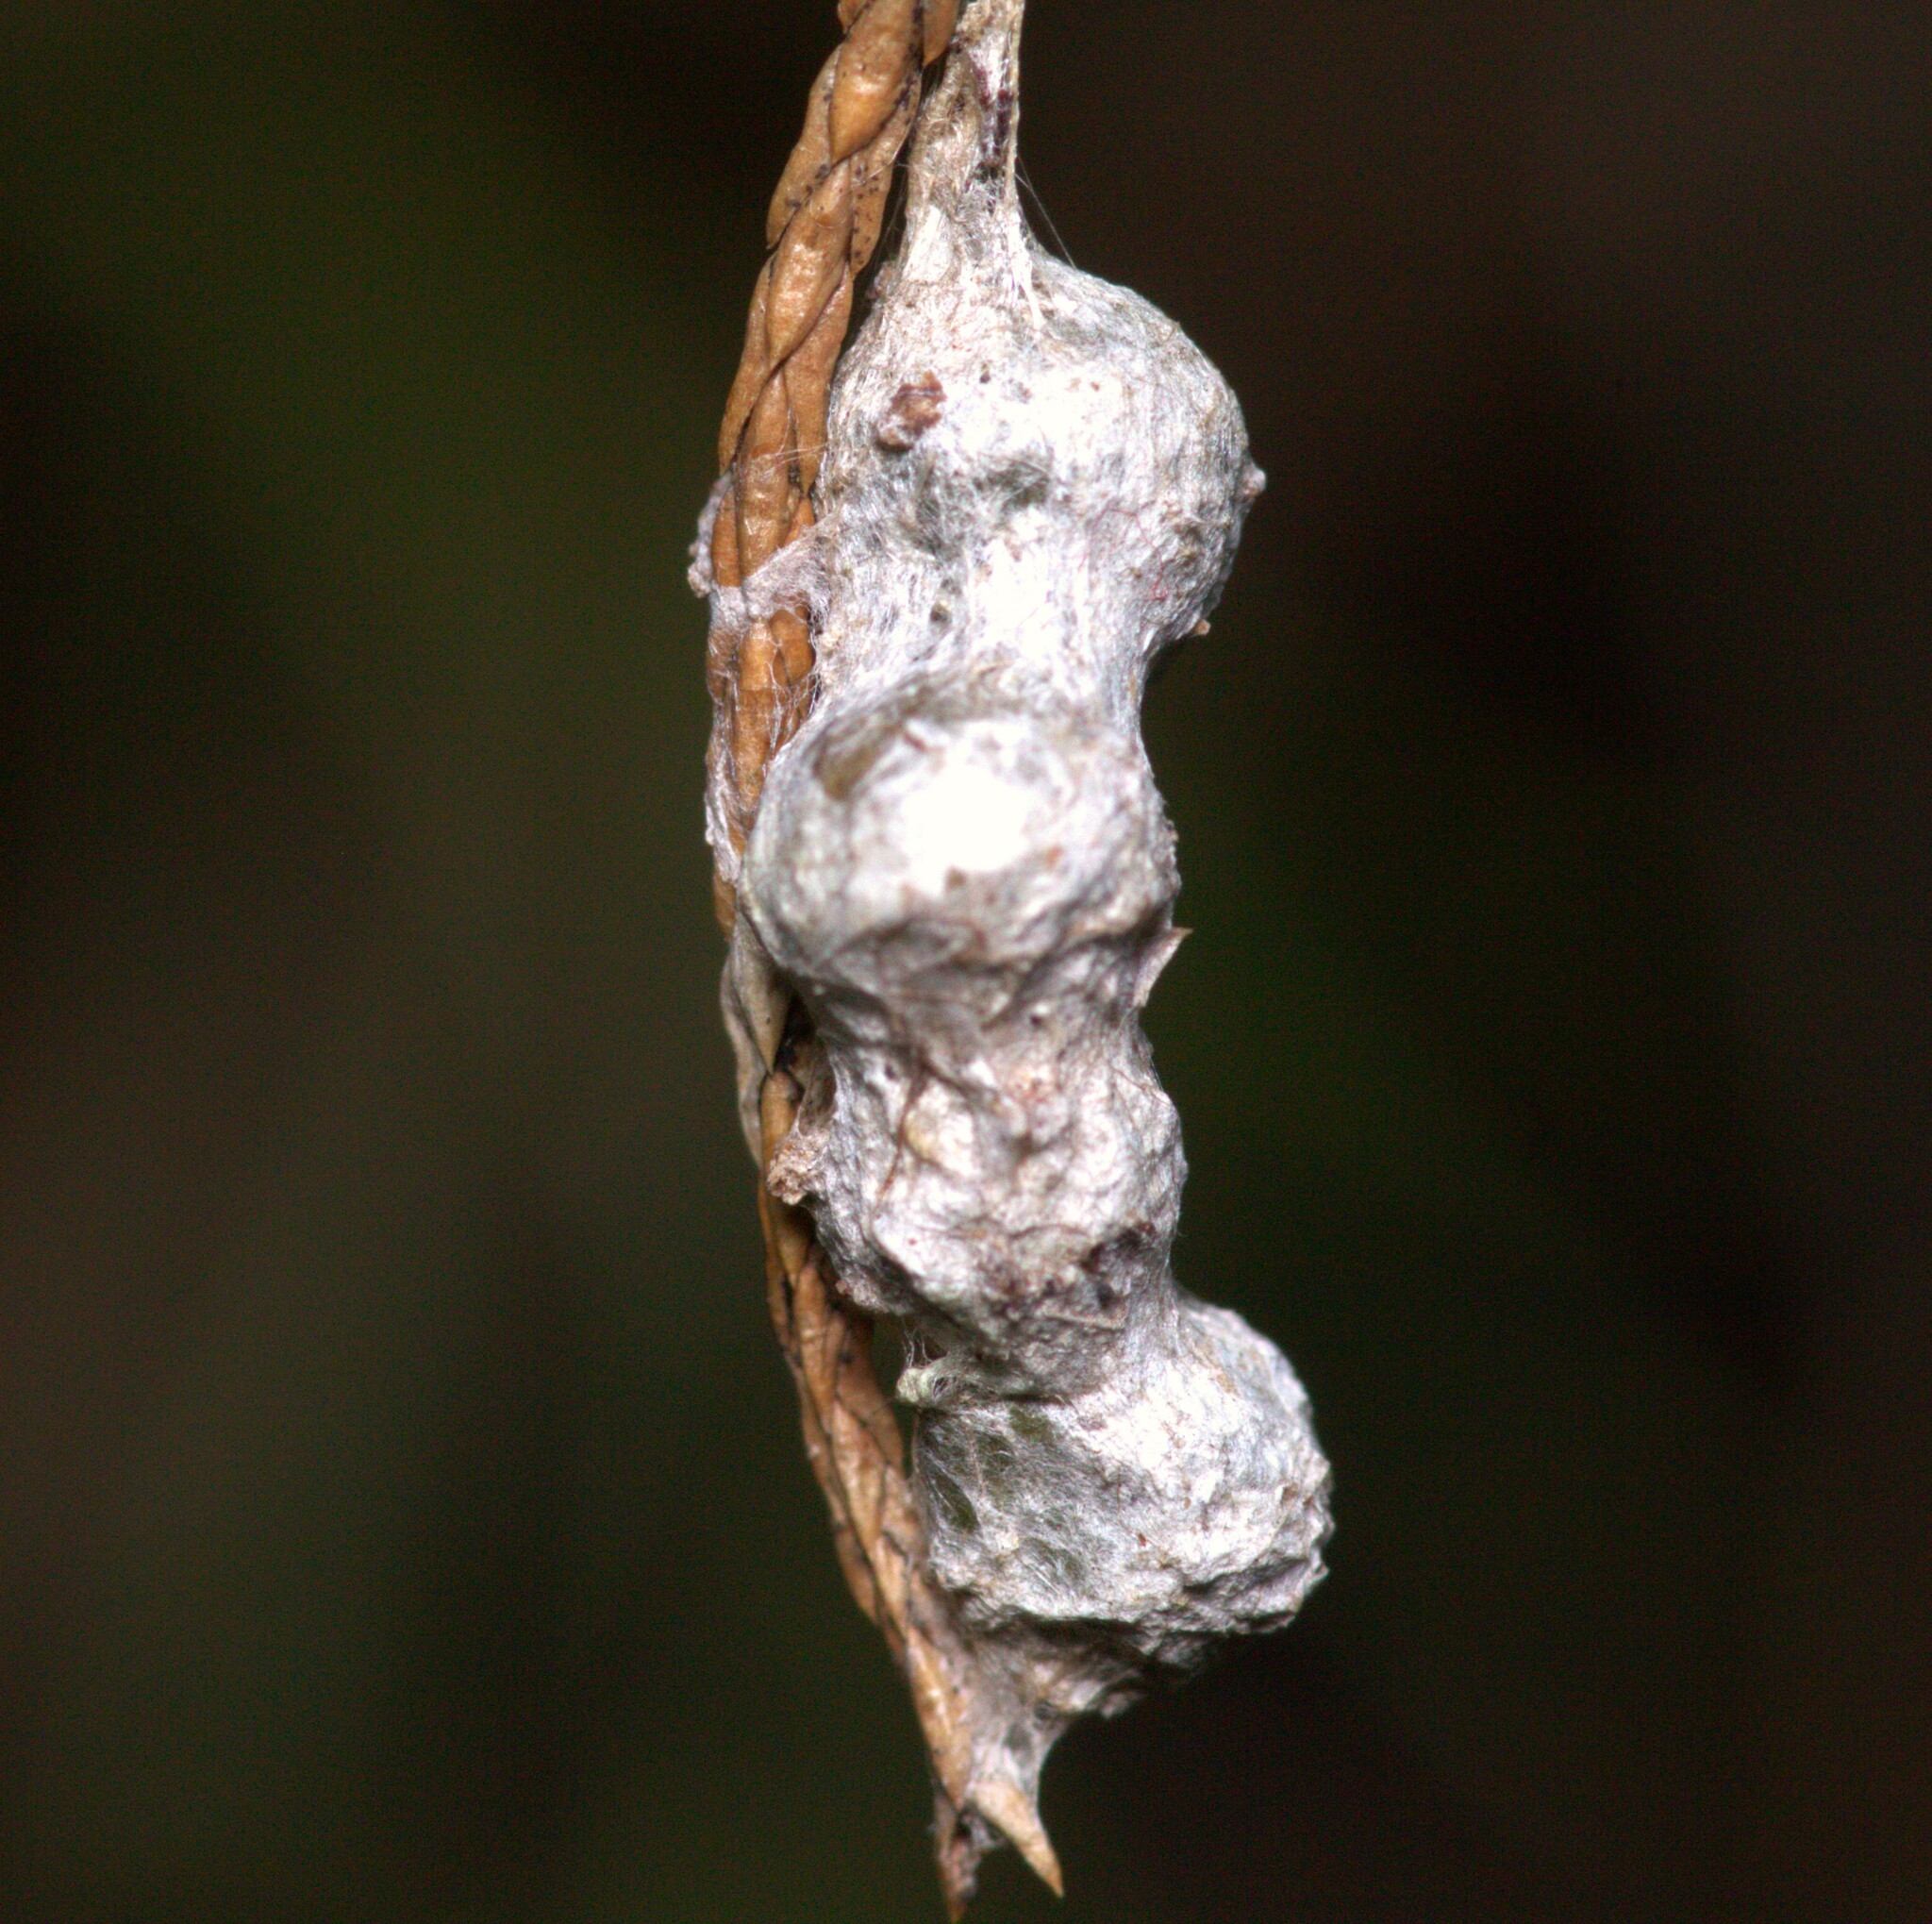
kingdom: Animalia
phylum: Arthropoda
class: Arachnida
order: Araneae
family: Araneidae
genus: Mecynogea
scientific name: Mecynogea lemniscata
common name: Orb weavers
